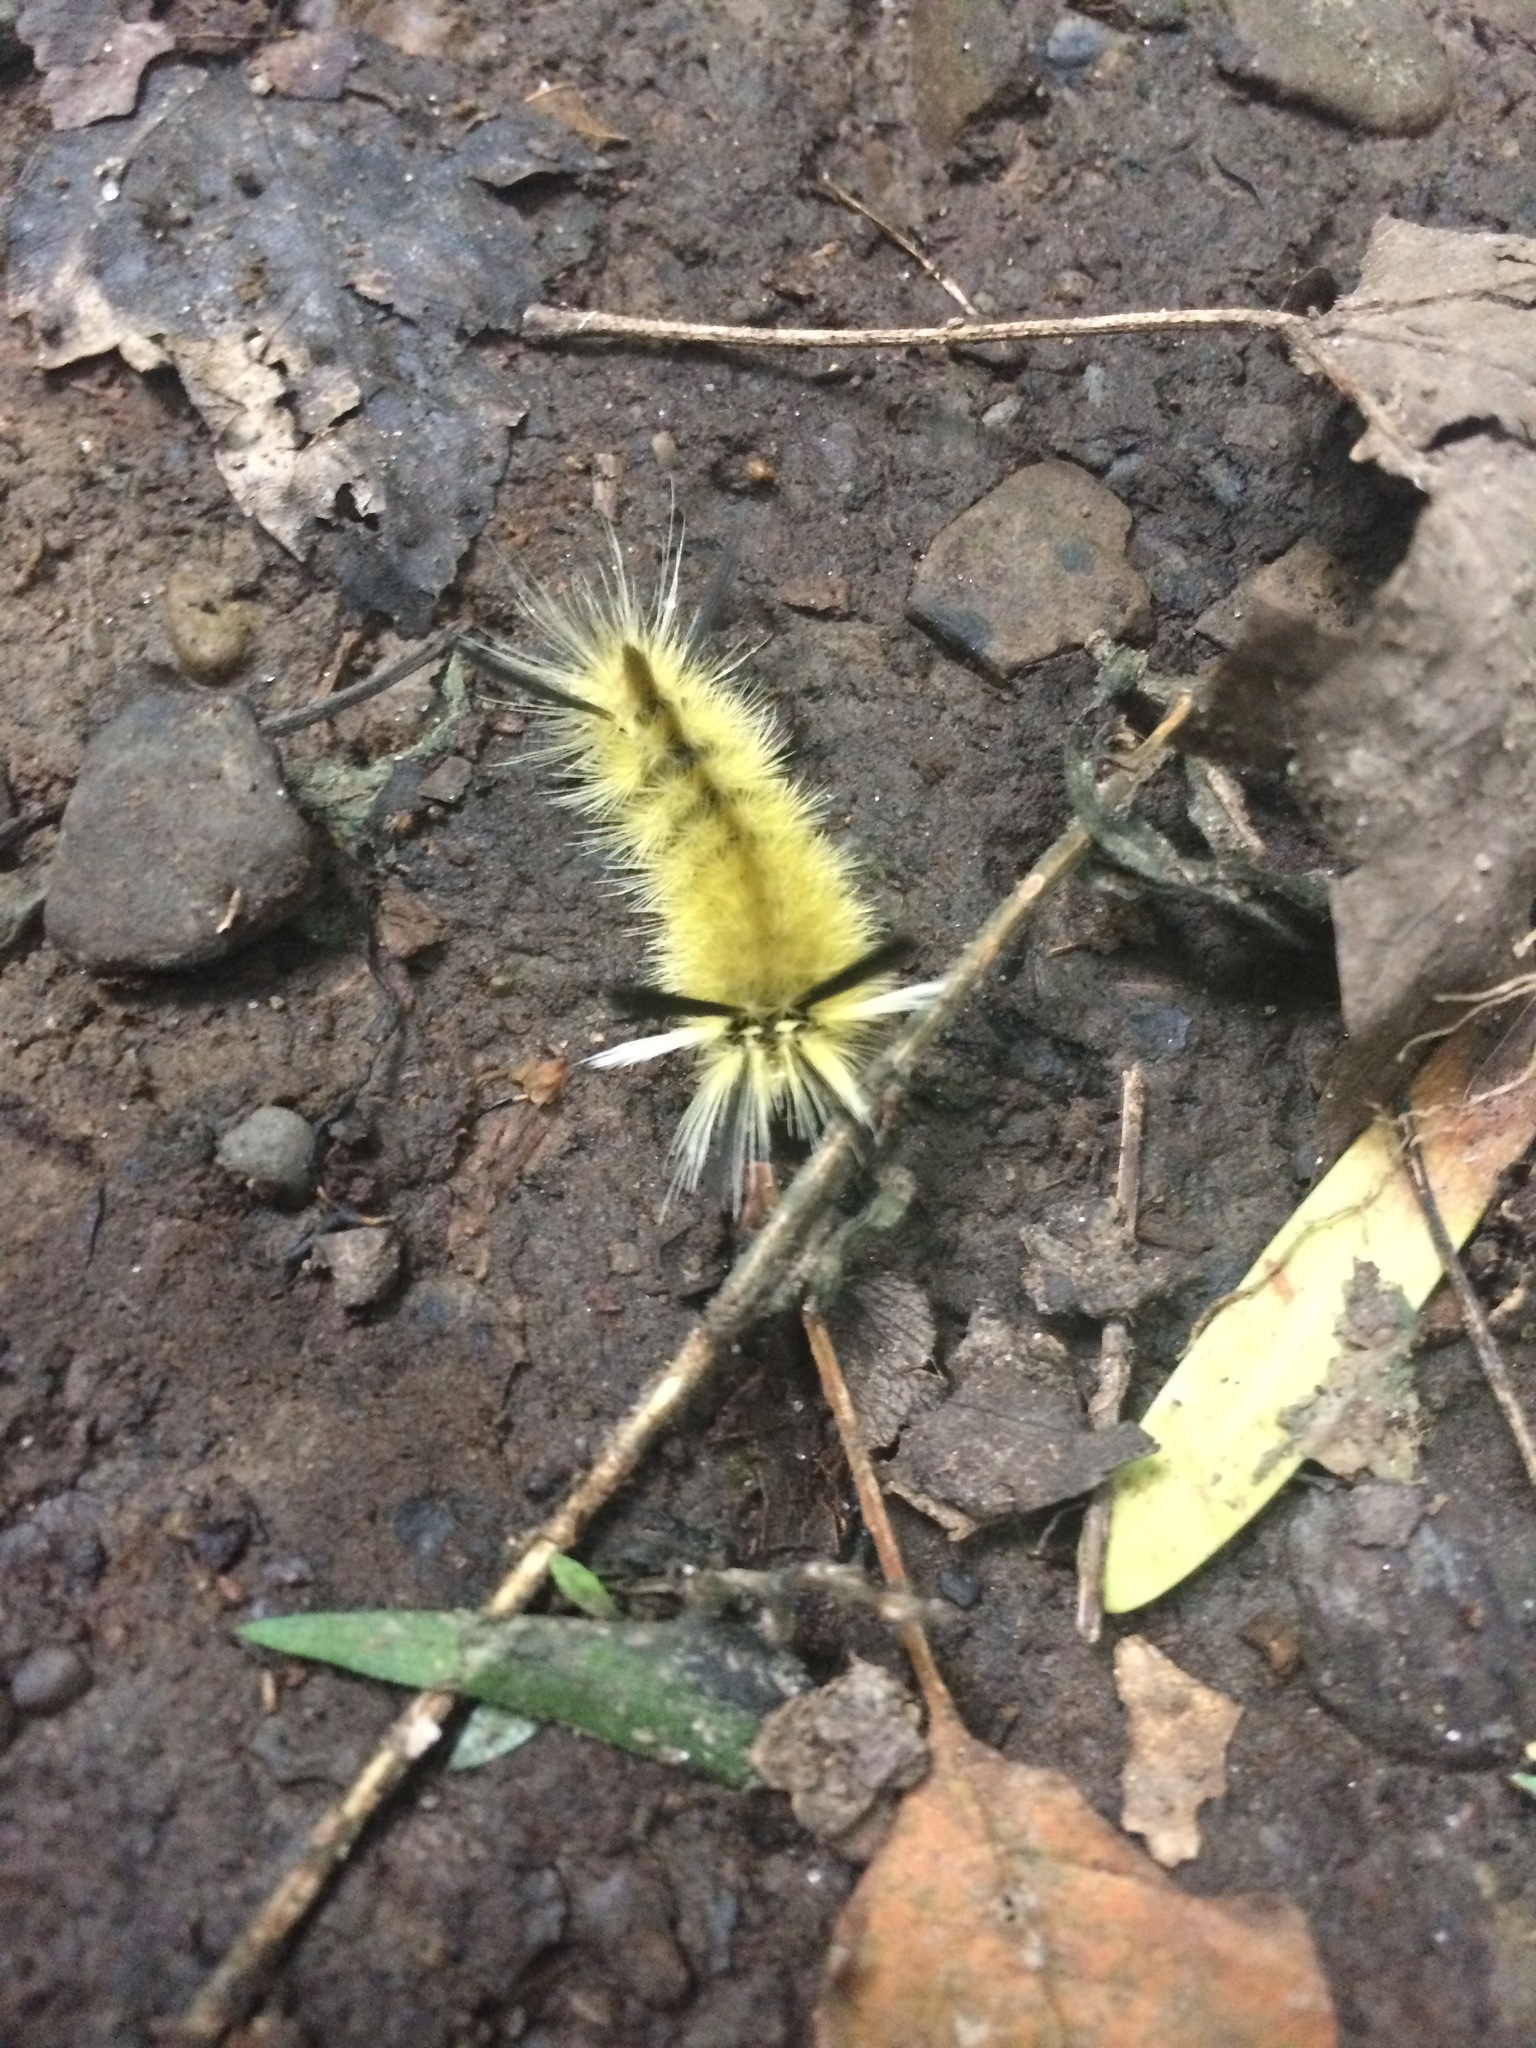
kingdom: Animalia
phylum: Arthropoda
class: Insecta
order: Lepidoptera
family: Erebidae
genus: Halysidota
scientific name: Halysidota tessellaris
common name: Banded tussock moth
